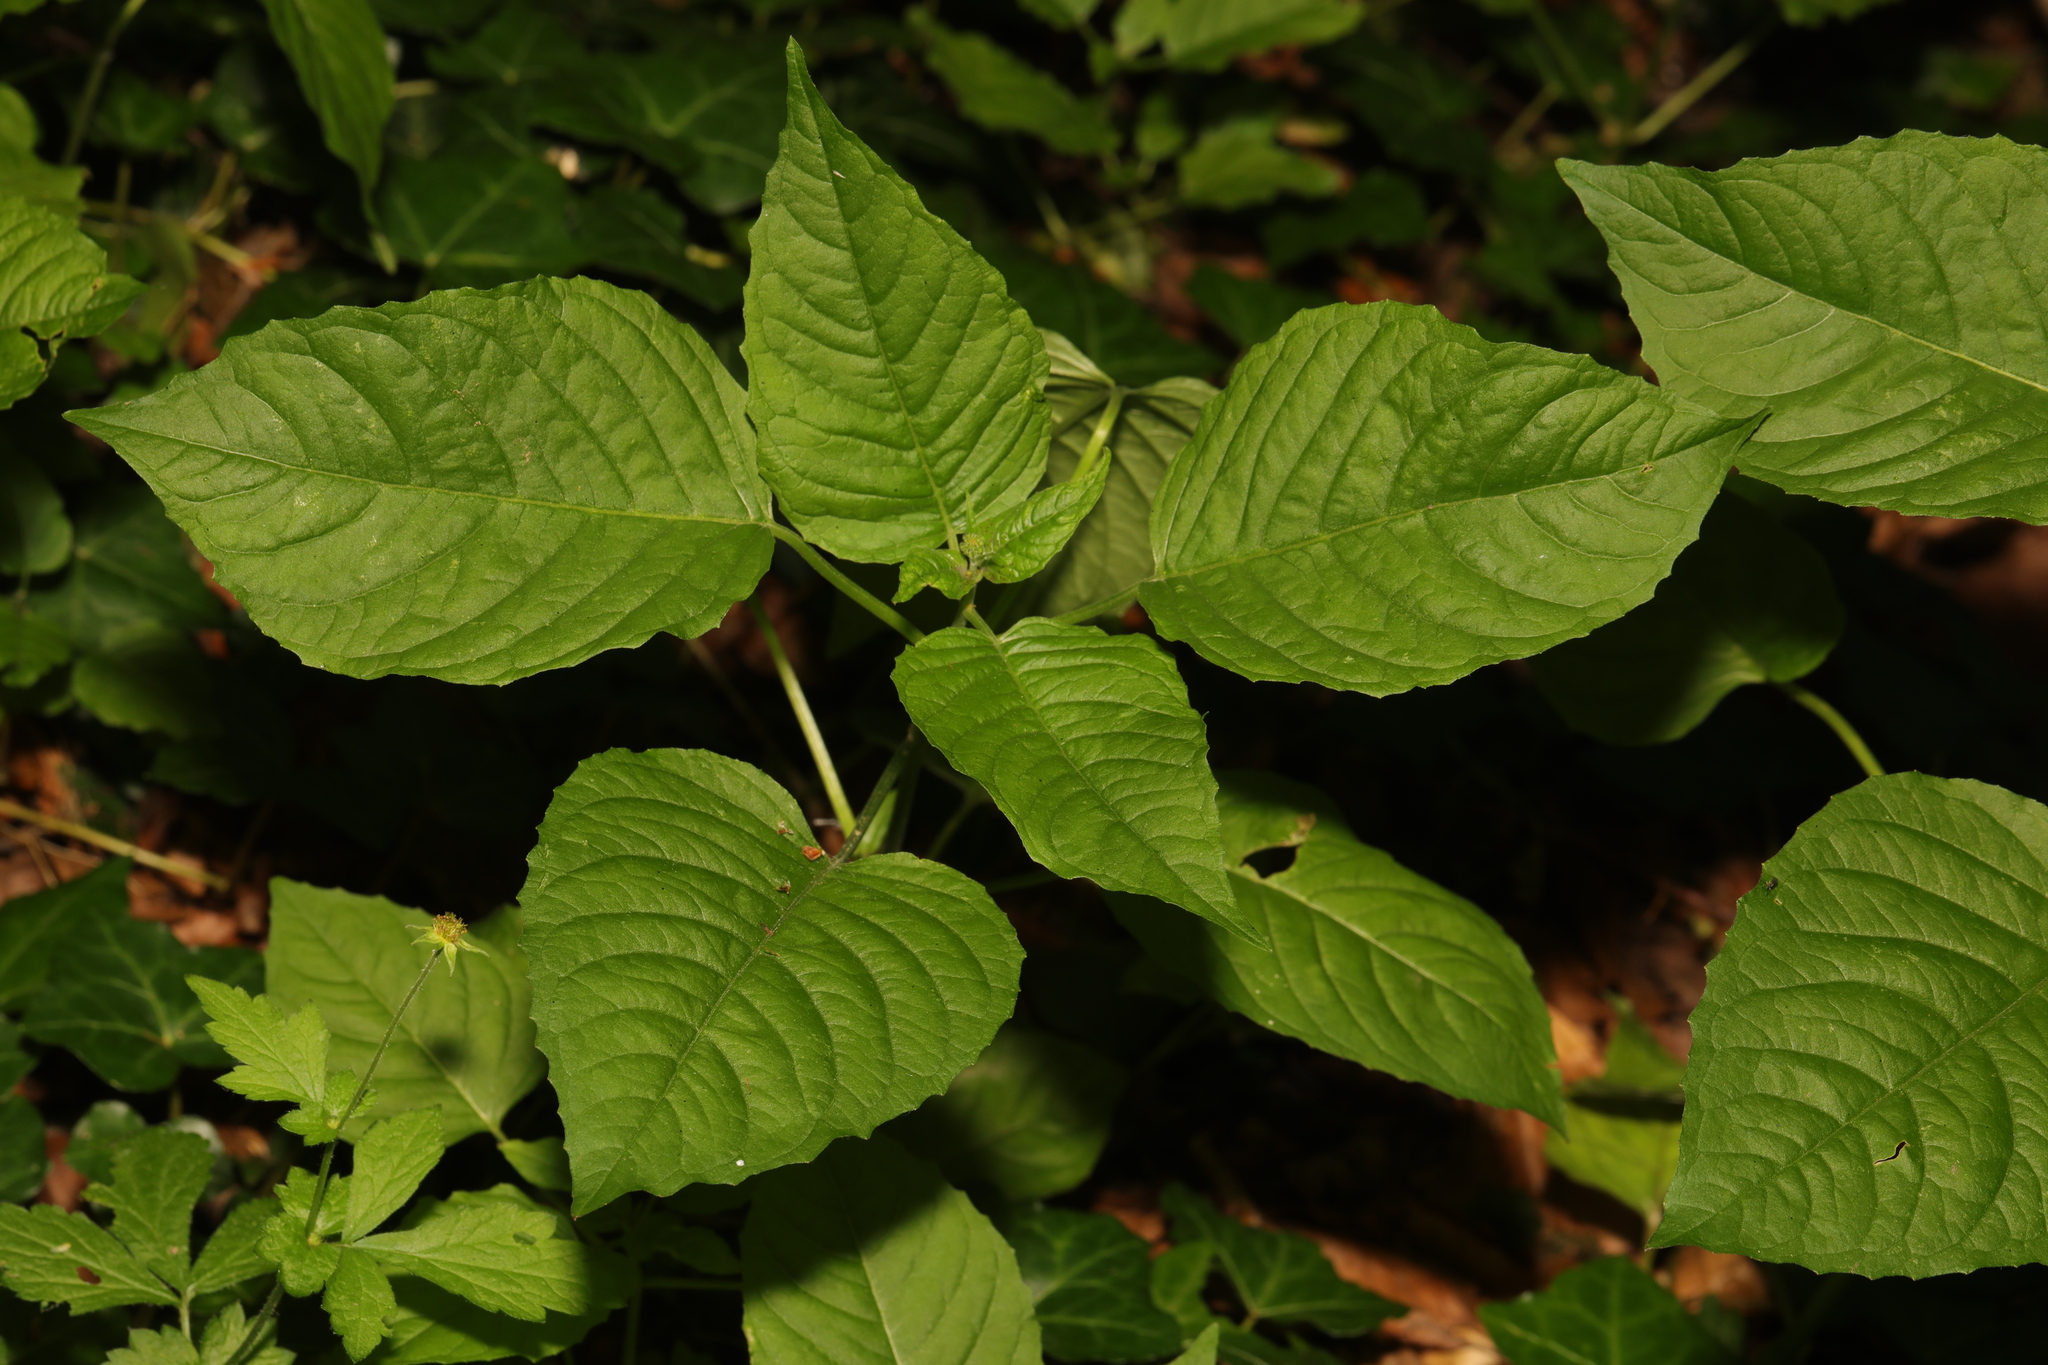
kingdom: Plantae
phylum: Tracheophyta
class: Magnoliopsida
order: Myrtales
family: Onagraceae
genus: Circaea
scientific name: Circaea lutetiana
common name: Enchanter's-nightshade
